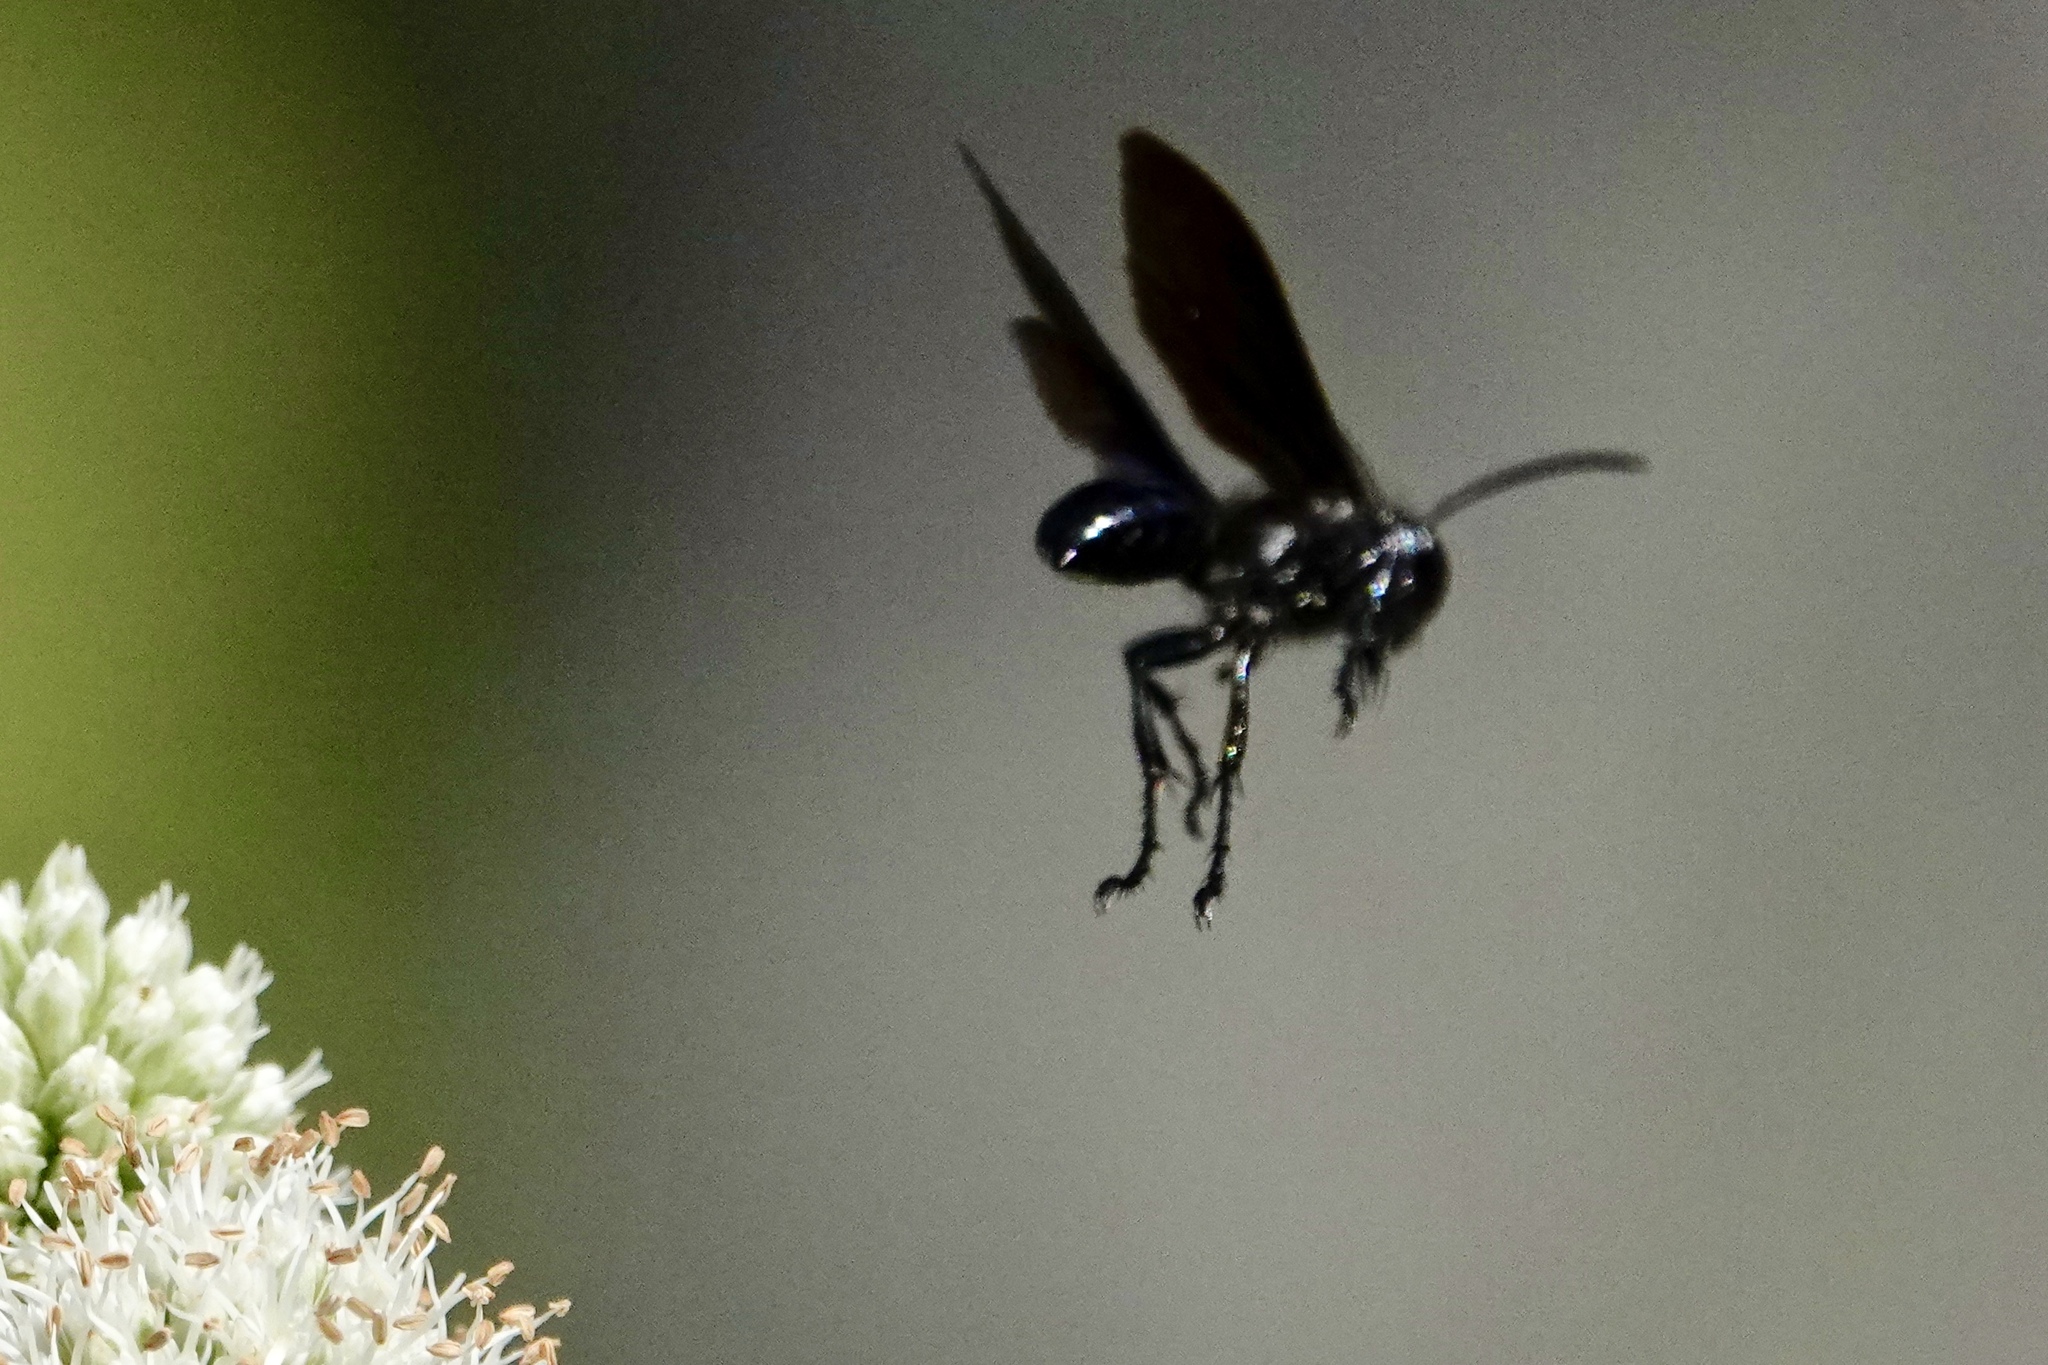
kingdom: Animalia
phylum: Arthropoda
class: Insecta
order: Hymenoptera
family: Sphecidae
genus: Isodontia
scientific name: Isodontia philadelphica
